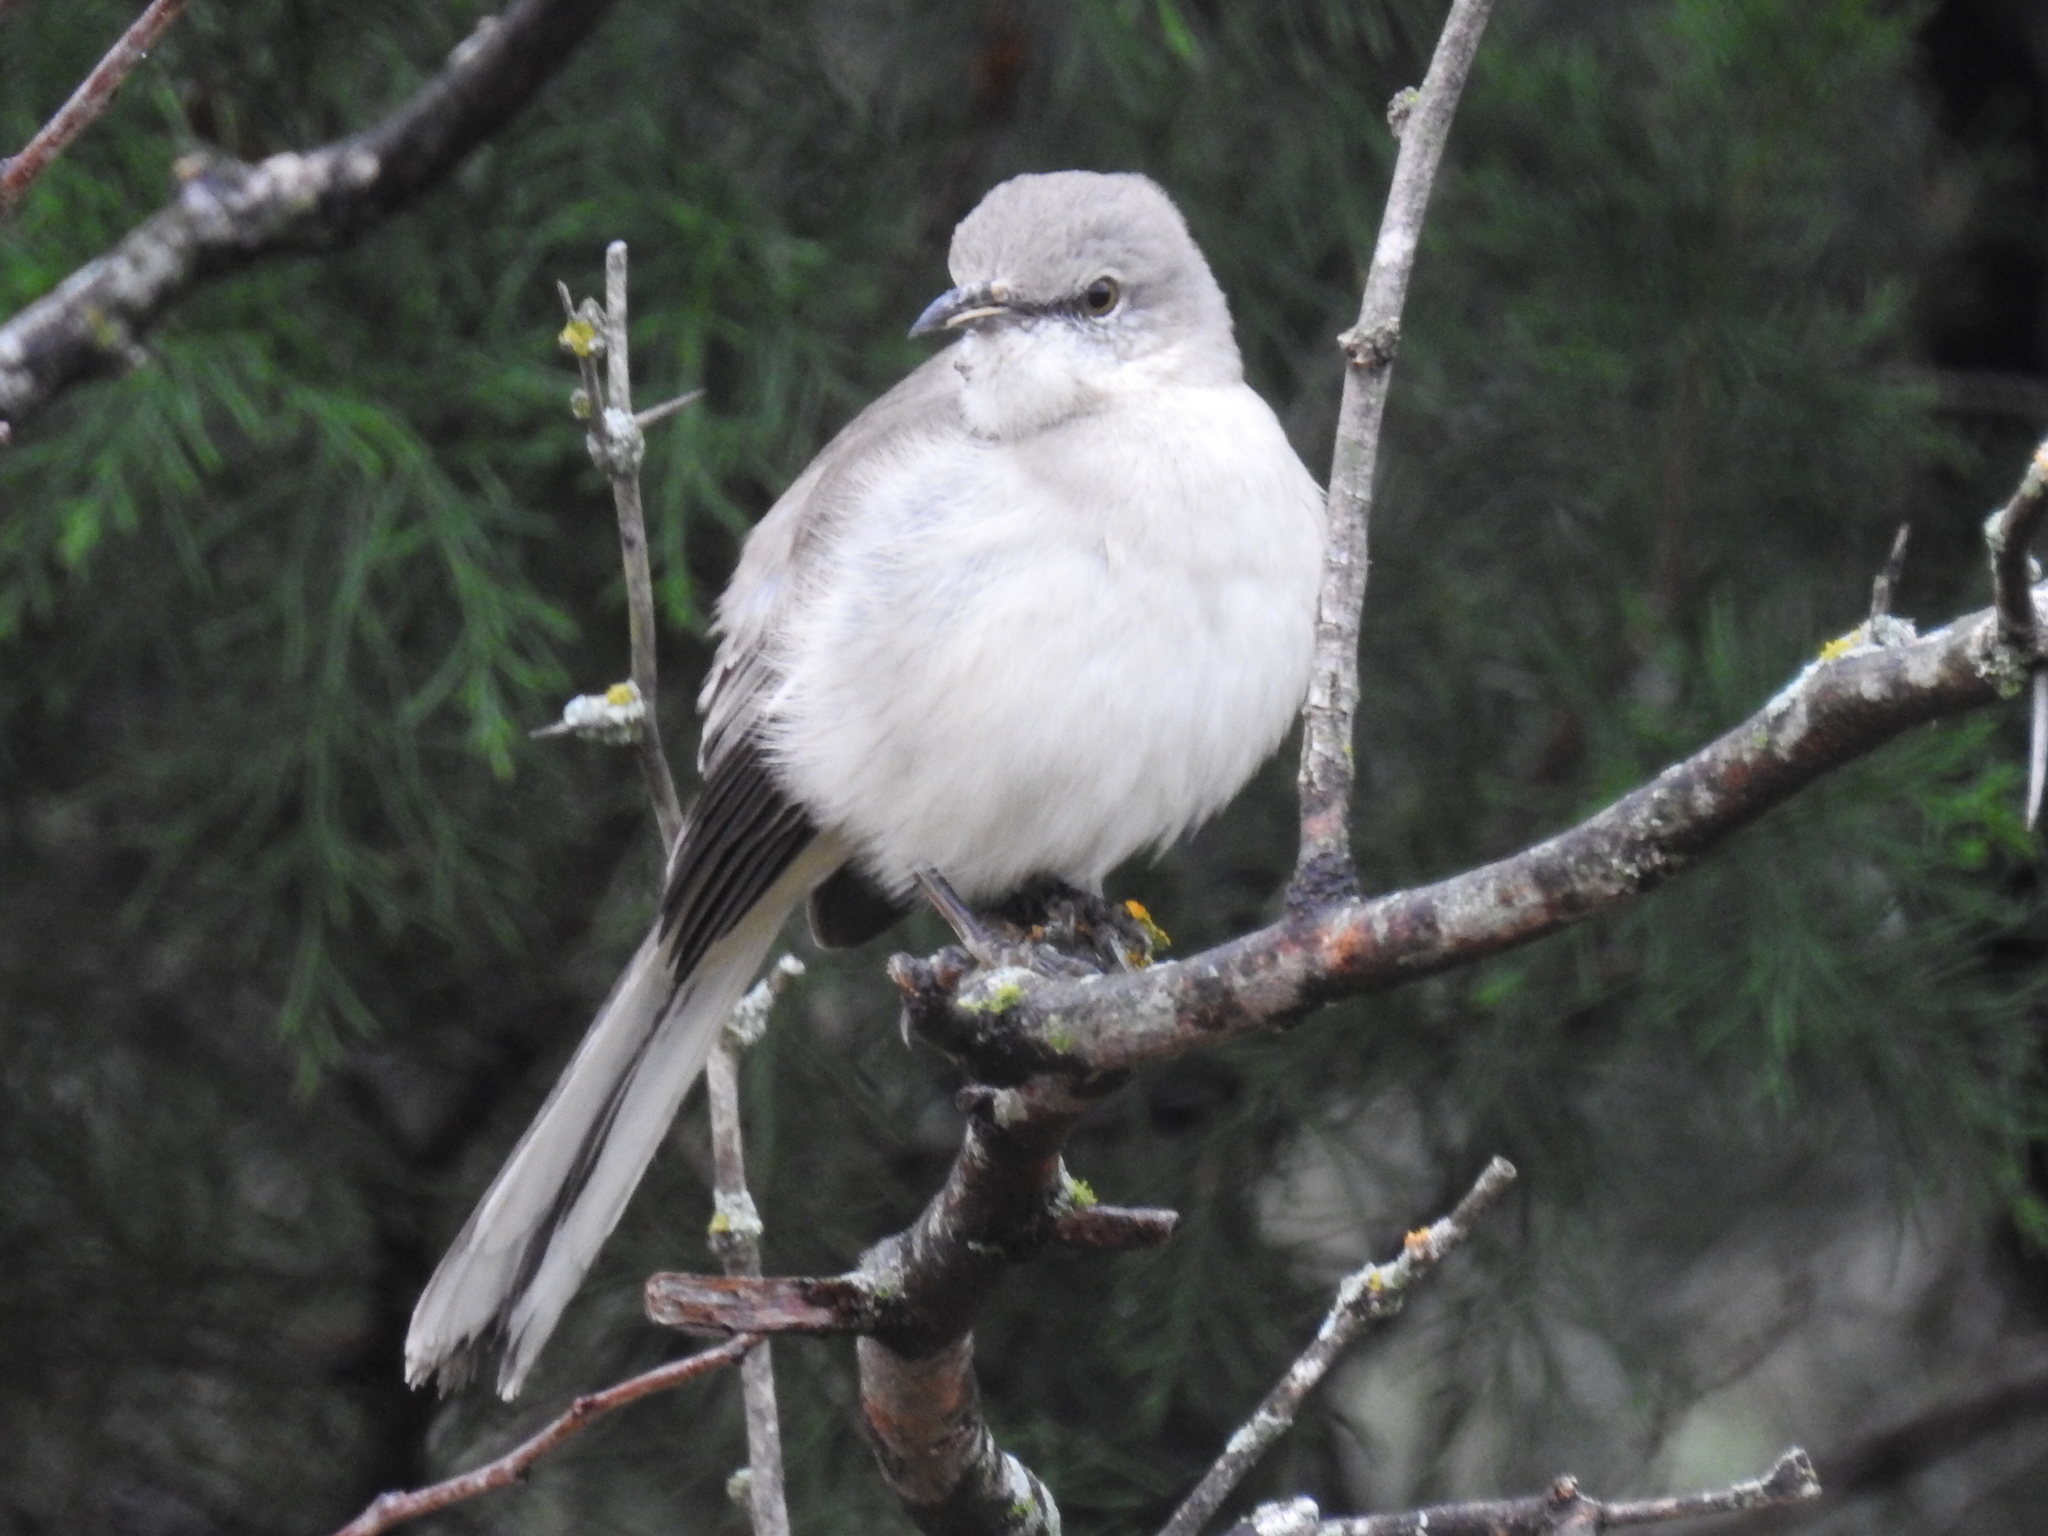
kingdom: Animalia
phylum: Chordata
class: Aves
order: Passeriformes
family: Mimidae
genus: Mimus
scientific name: Mimus polyglottos
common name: Northern mockingbird
